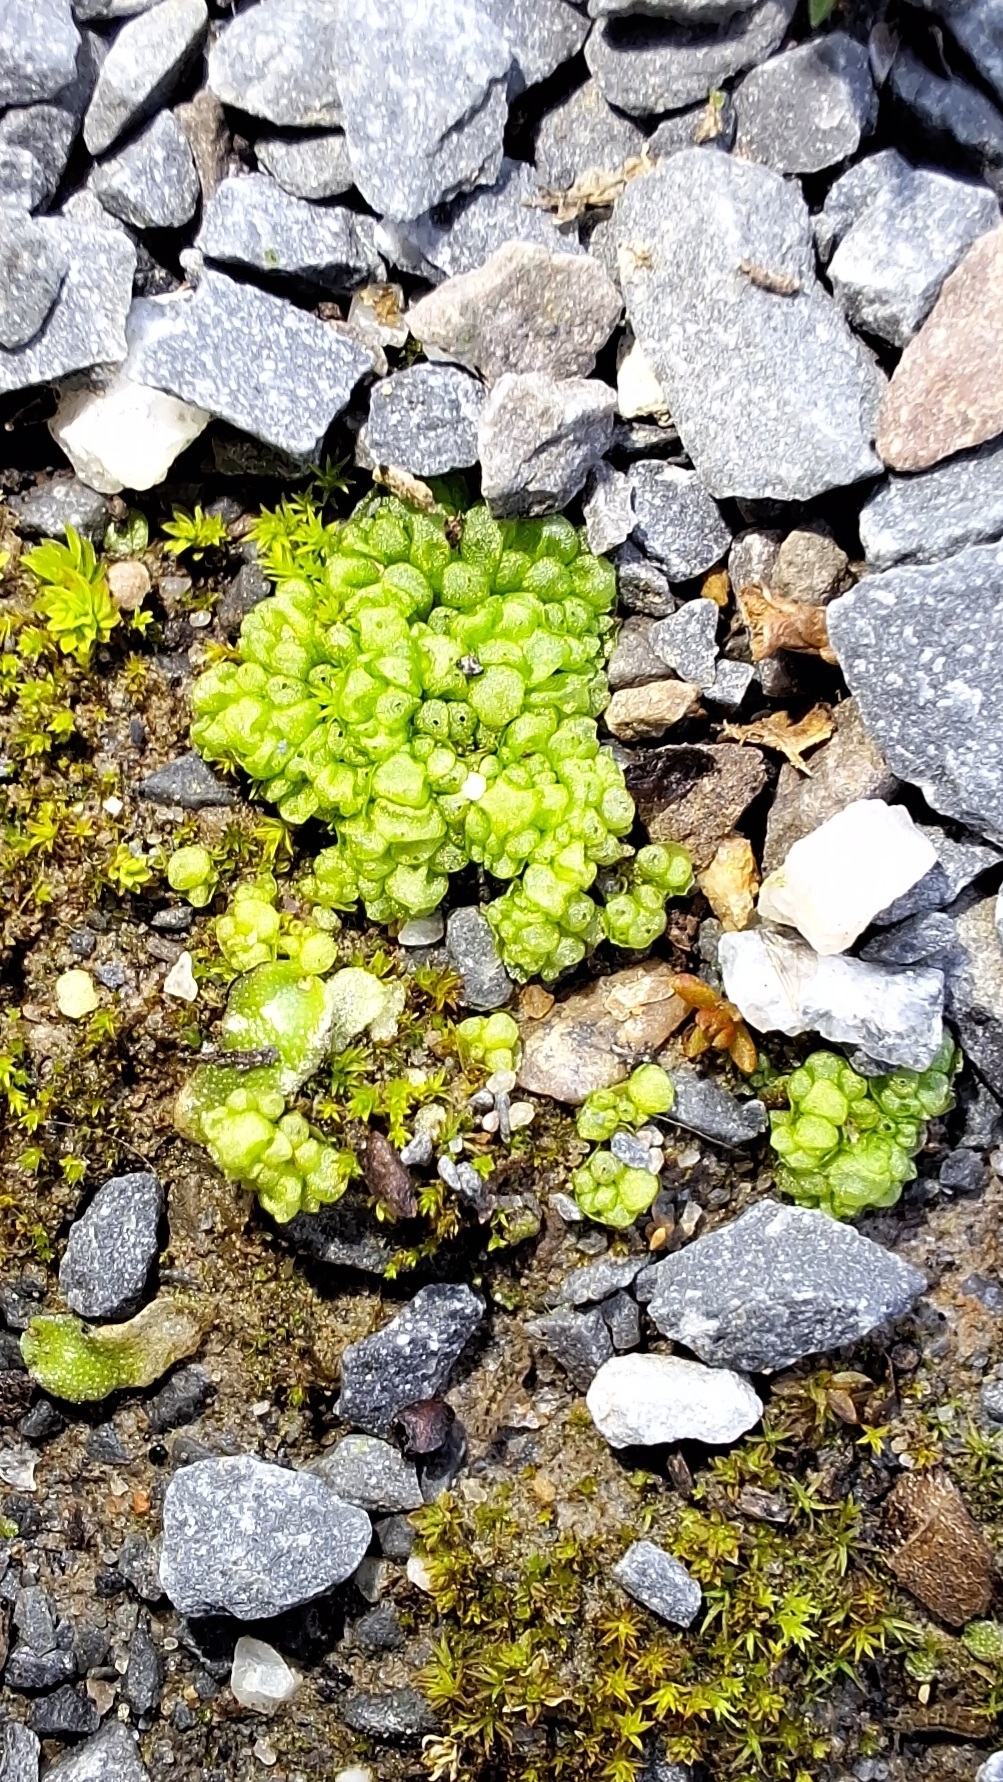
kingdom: Plantae
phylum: Marchantiophyta
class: Marchantiopsida
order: Sphaerocarpales
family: Sphaerocarpaceae
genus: Sphaerocarpos
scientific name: Sphaerocarpos texanus
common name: Texas balloonwort
